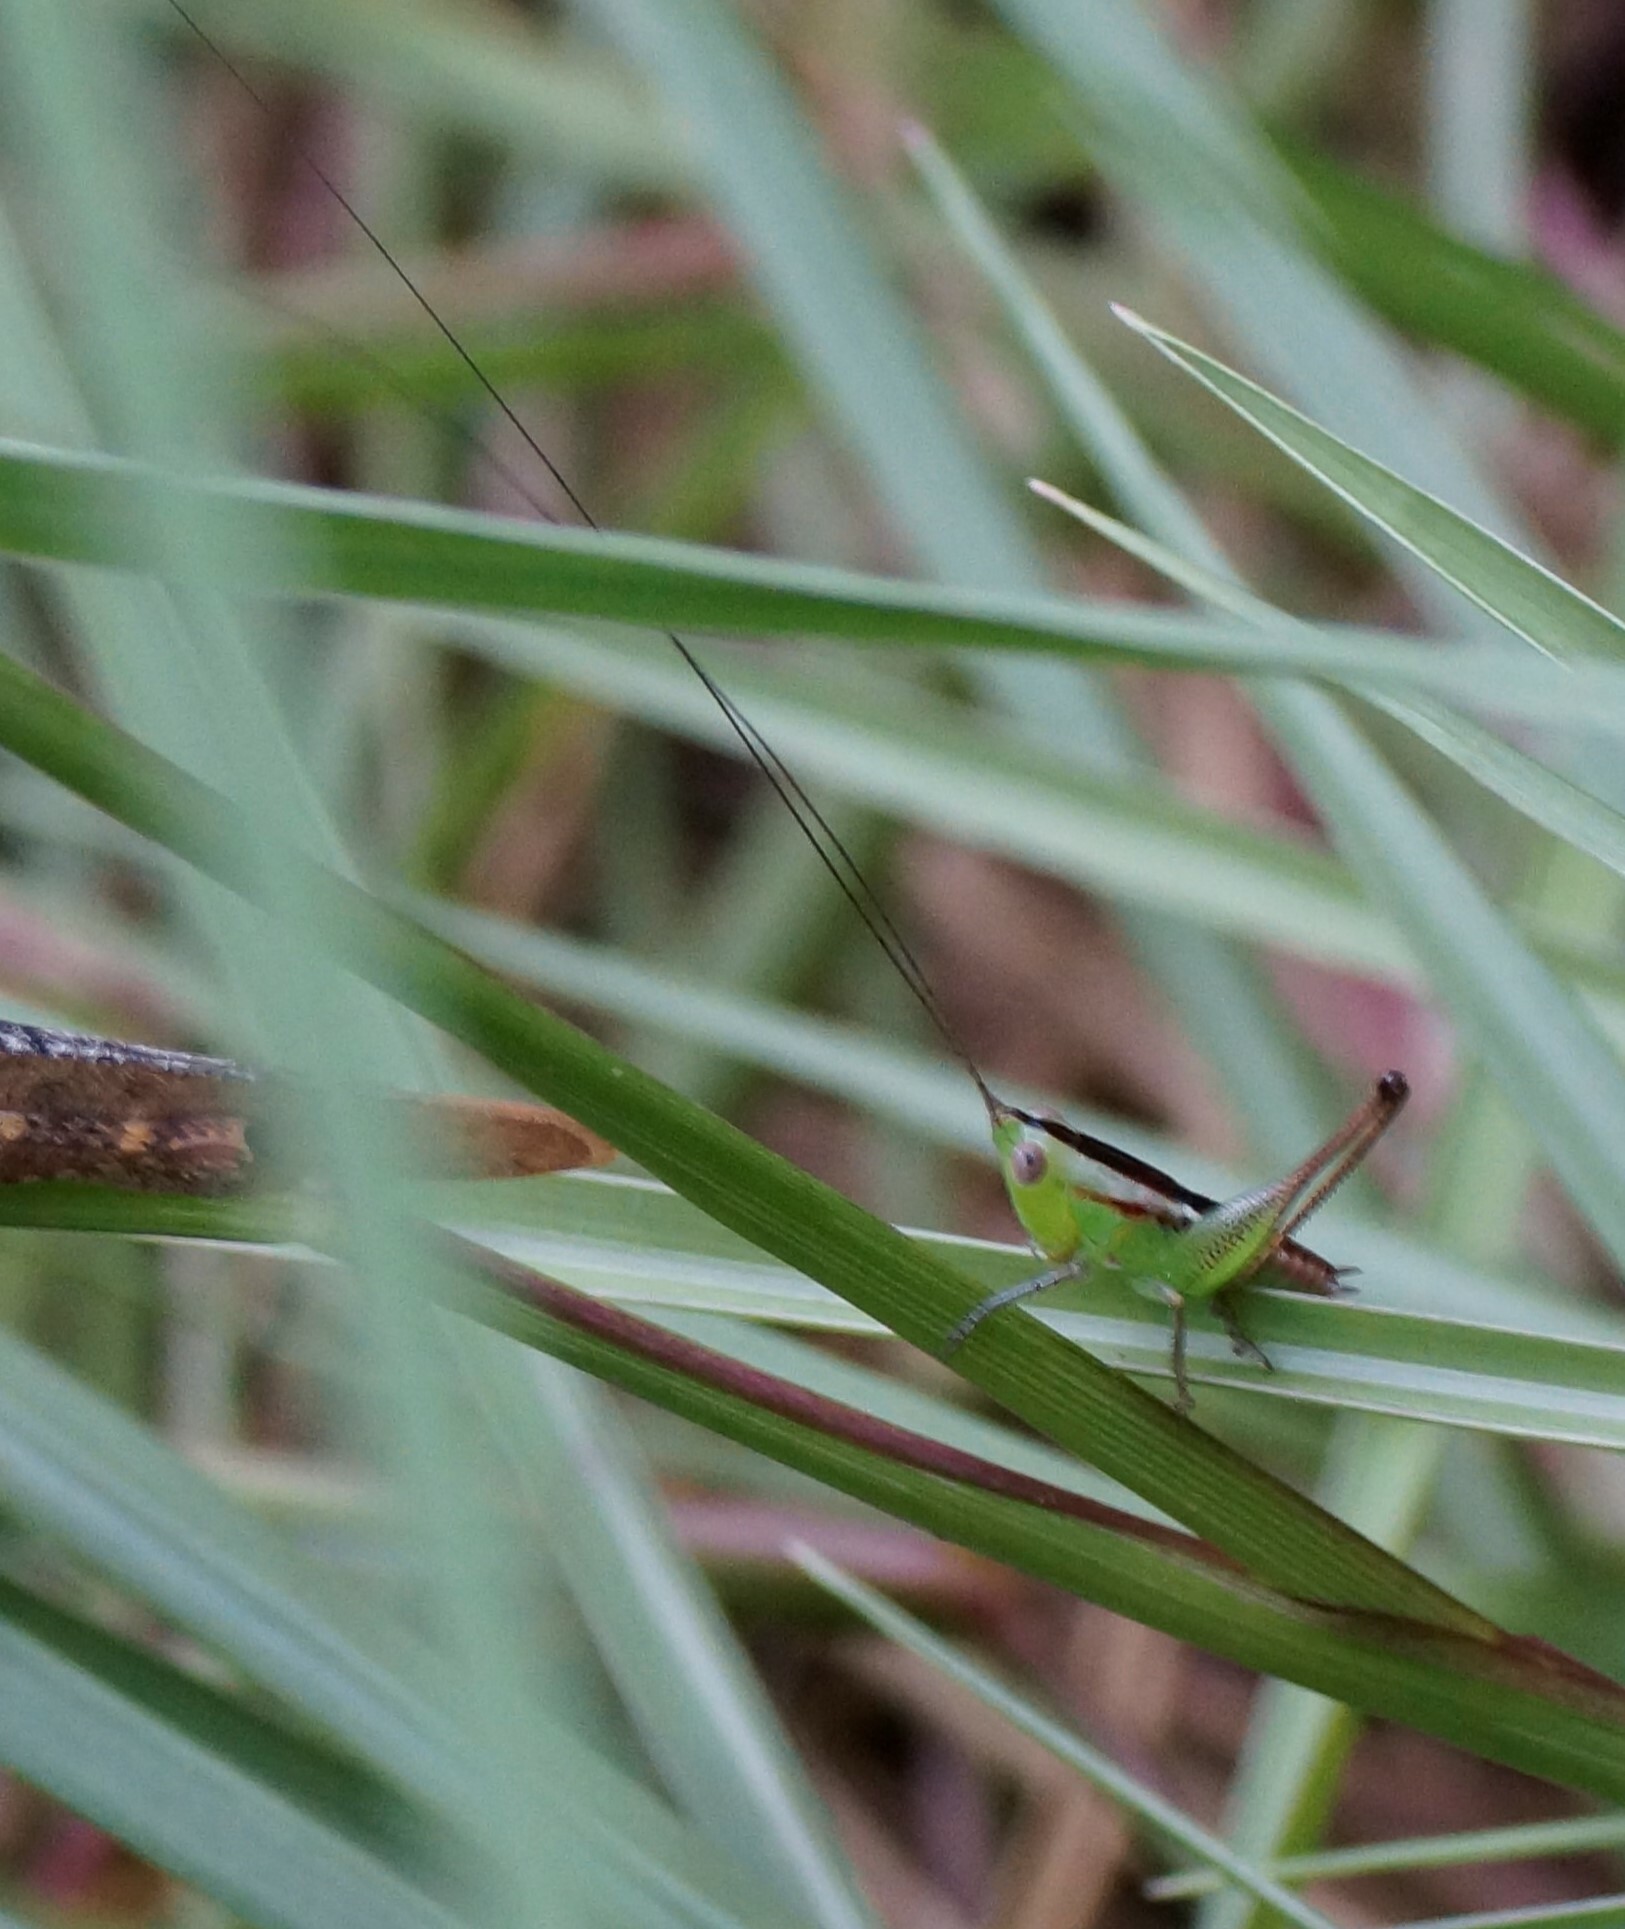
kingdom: Animalia
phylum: Arthropoda
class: Insecta
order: Orthoptera
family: Tettigoniidae
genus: Conocephalus
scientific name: Conocephalus semivittatus
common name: Blackish meadow katydid
